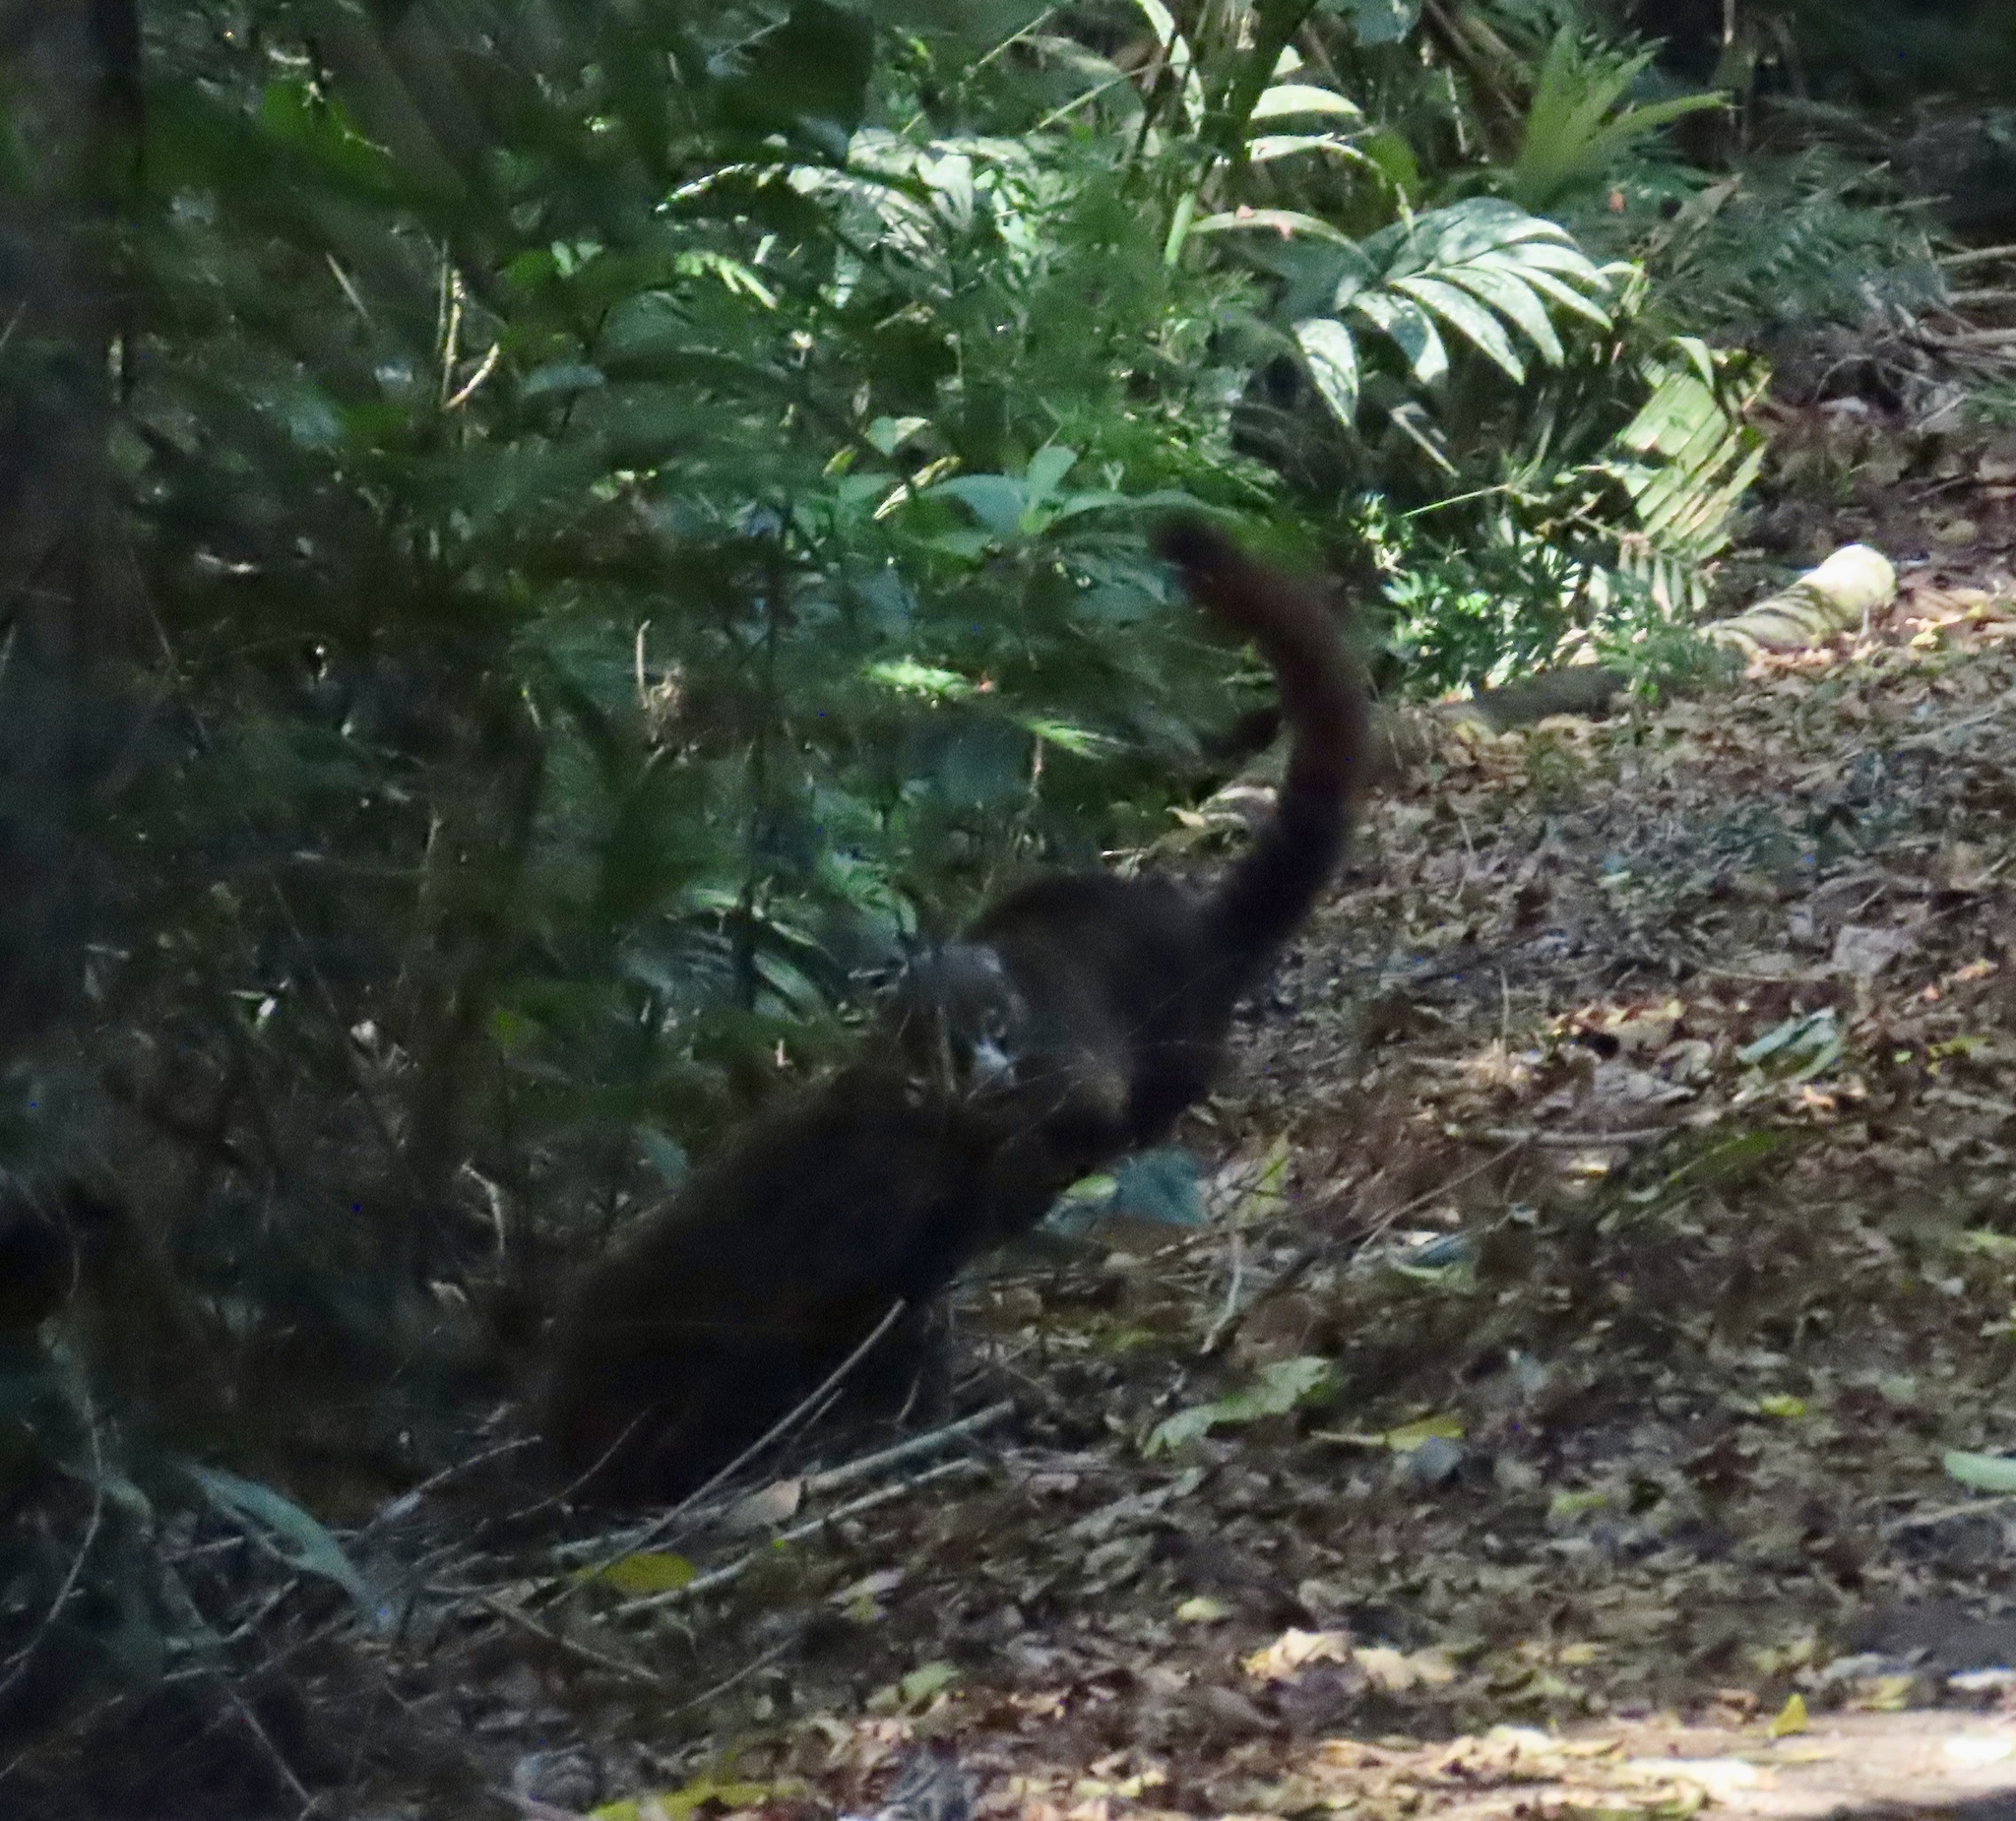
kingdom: Animalia
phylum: Chordata
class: Mammalia
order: Carnivora
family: Procyonidae
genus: Nasua
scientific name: Nasua narica
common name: White-nosed coati
